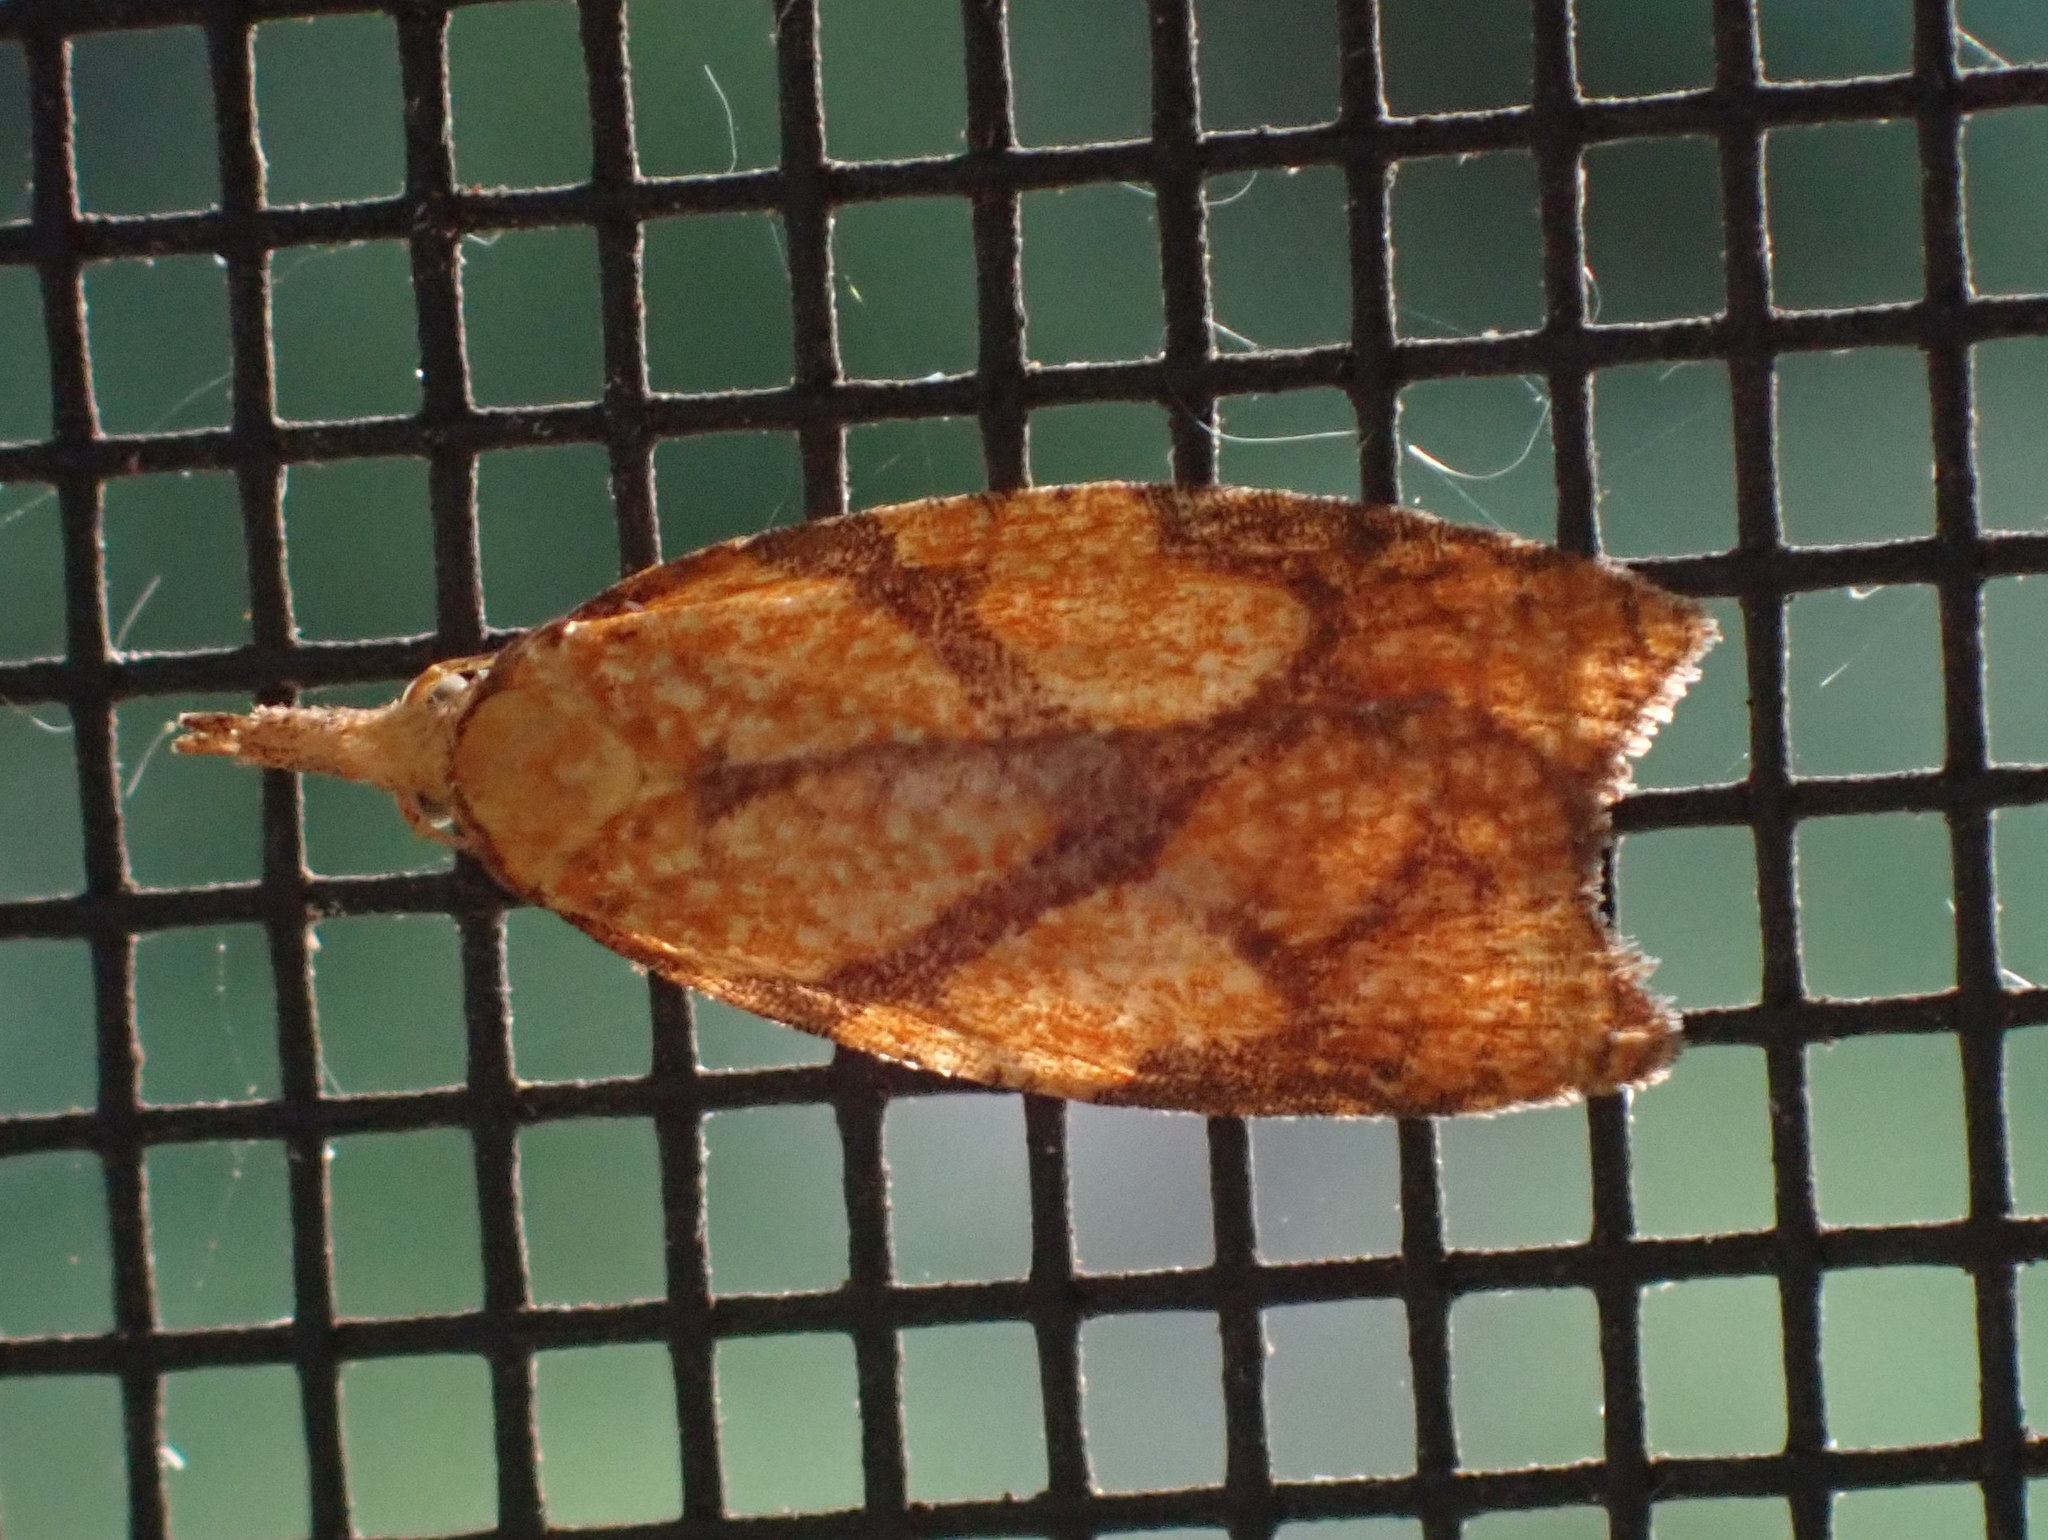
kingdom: Animalia
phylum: Arthropoda
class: Insecta
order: Lepidoptera
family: Tortricidae
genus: Cenopis
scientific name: Cenopis reticulatana
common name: Reticulated fruitworm moth
